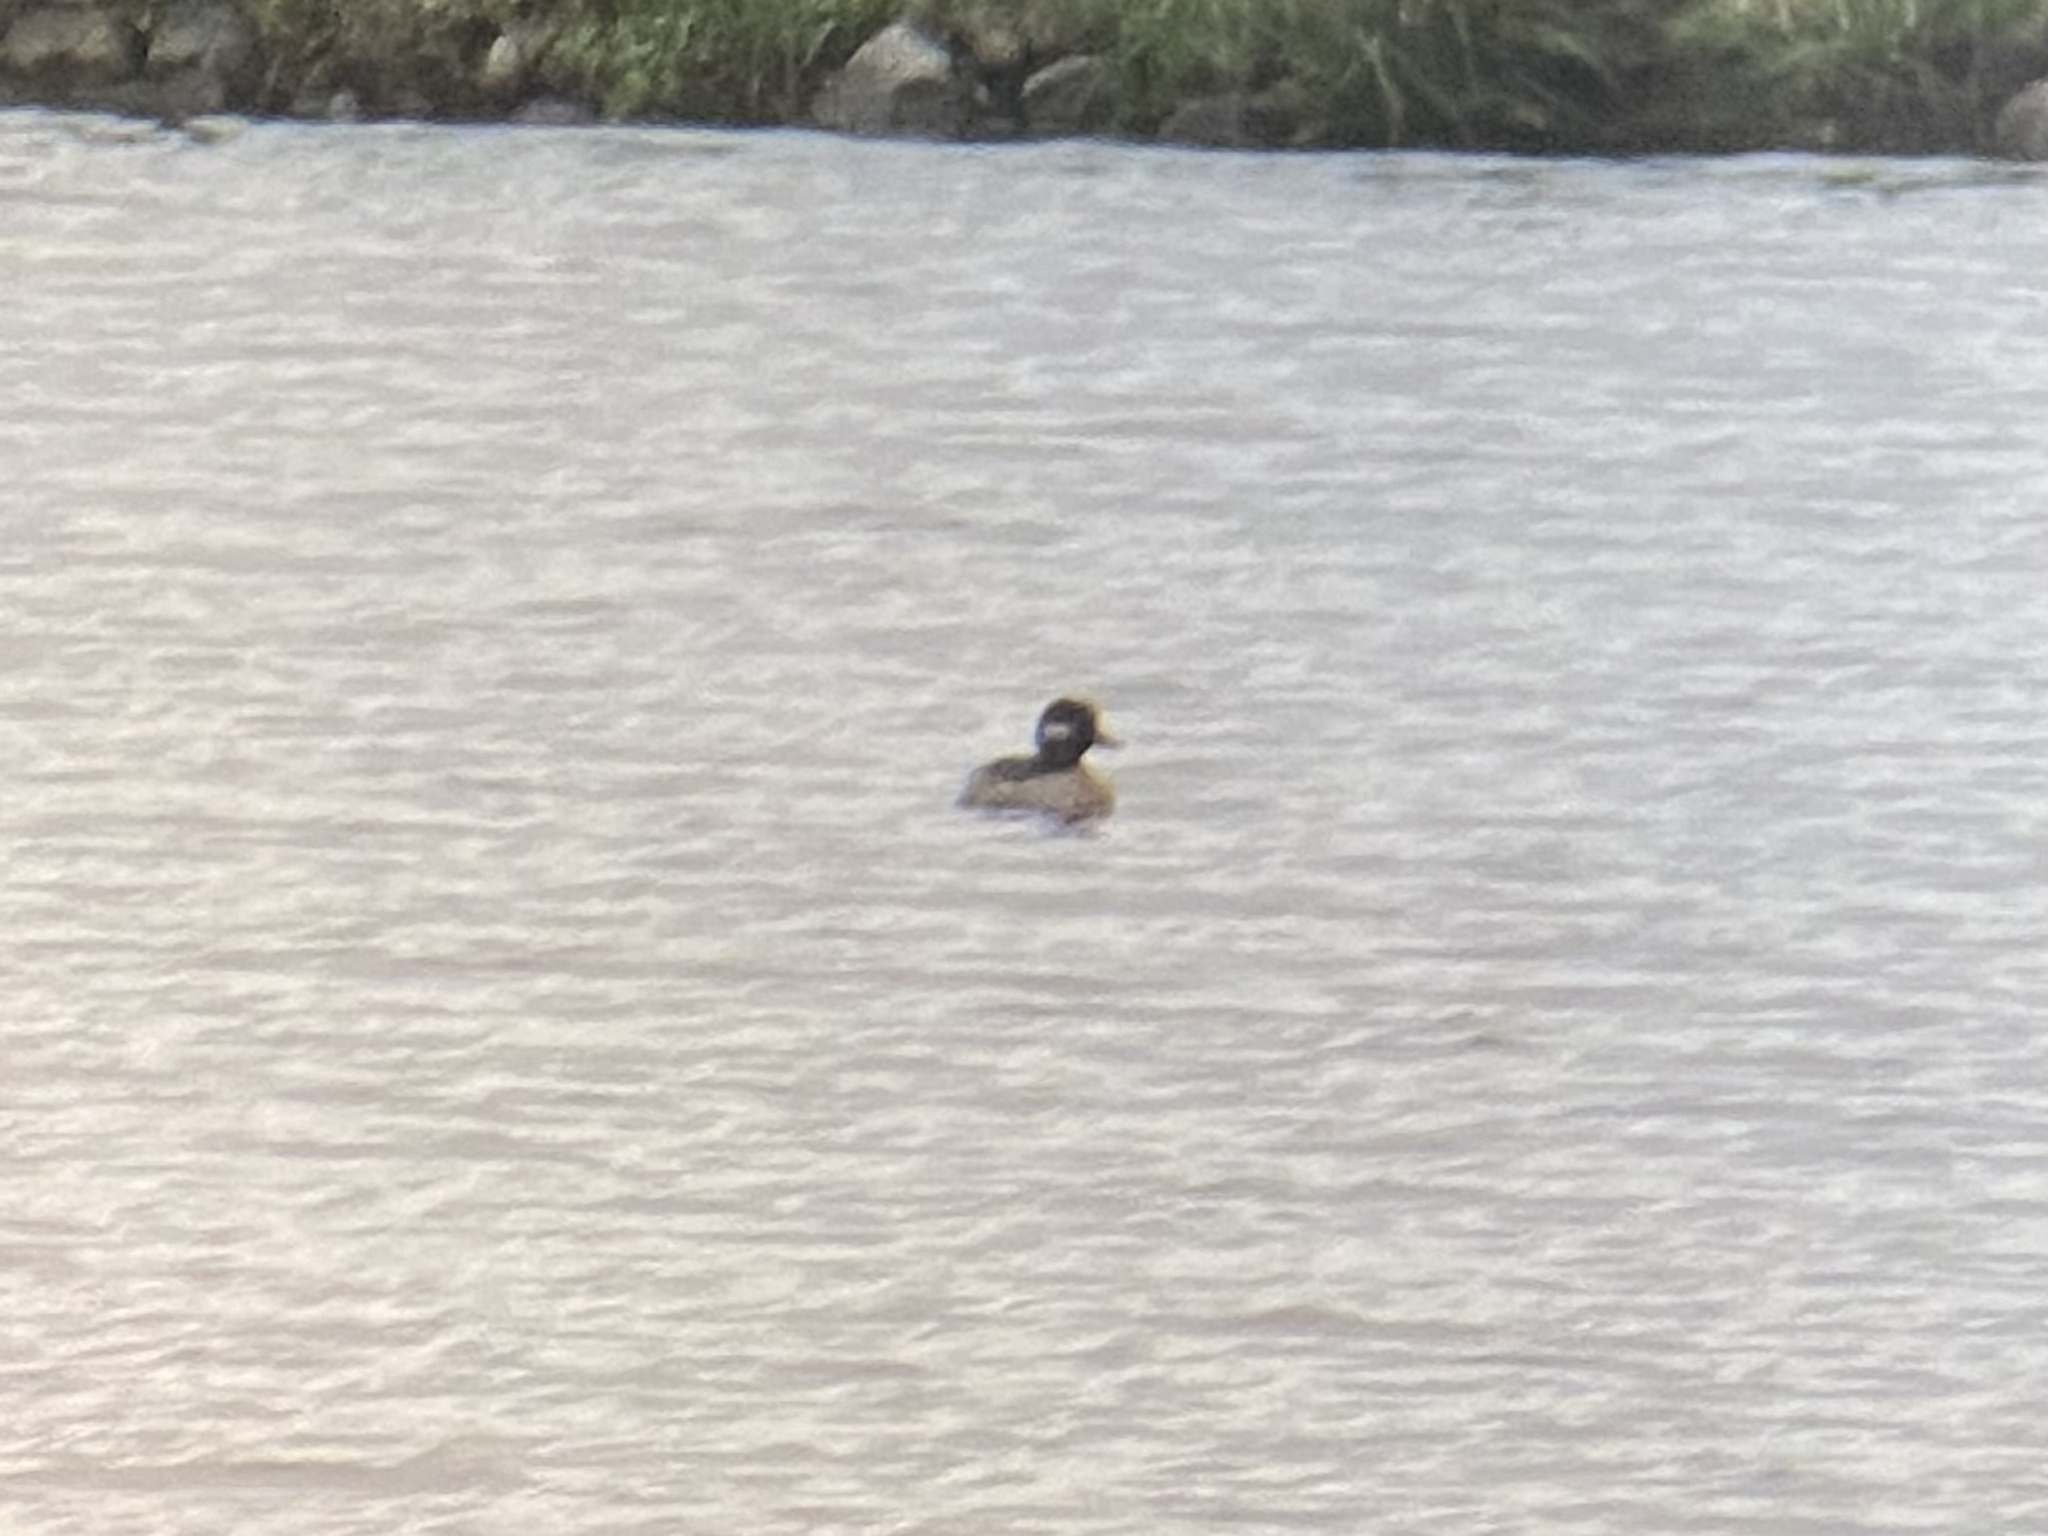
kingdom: Animalia
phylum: Chordata
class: Aves
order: Anseriformes
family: Anatidae
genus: Bucephala
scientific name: Bucephala albeola
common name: Bufflehead
